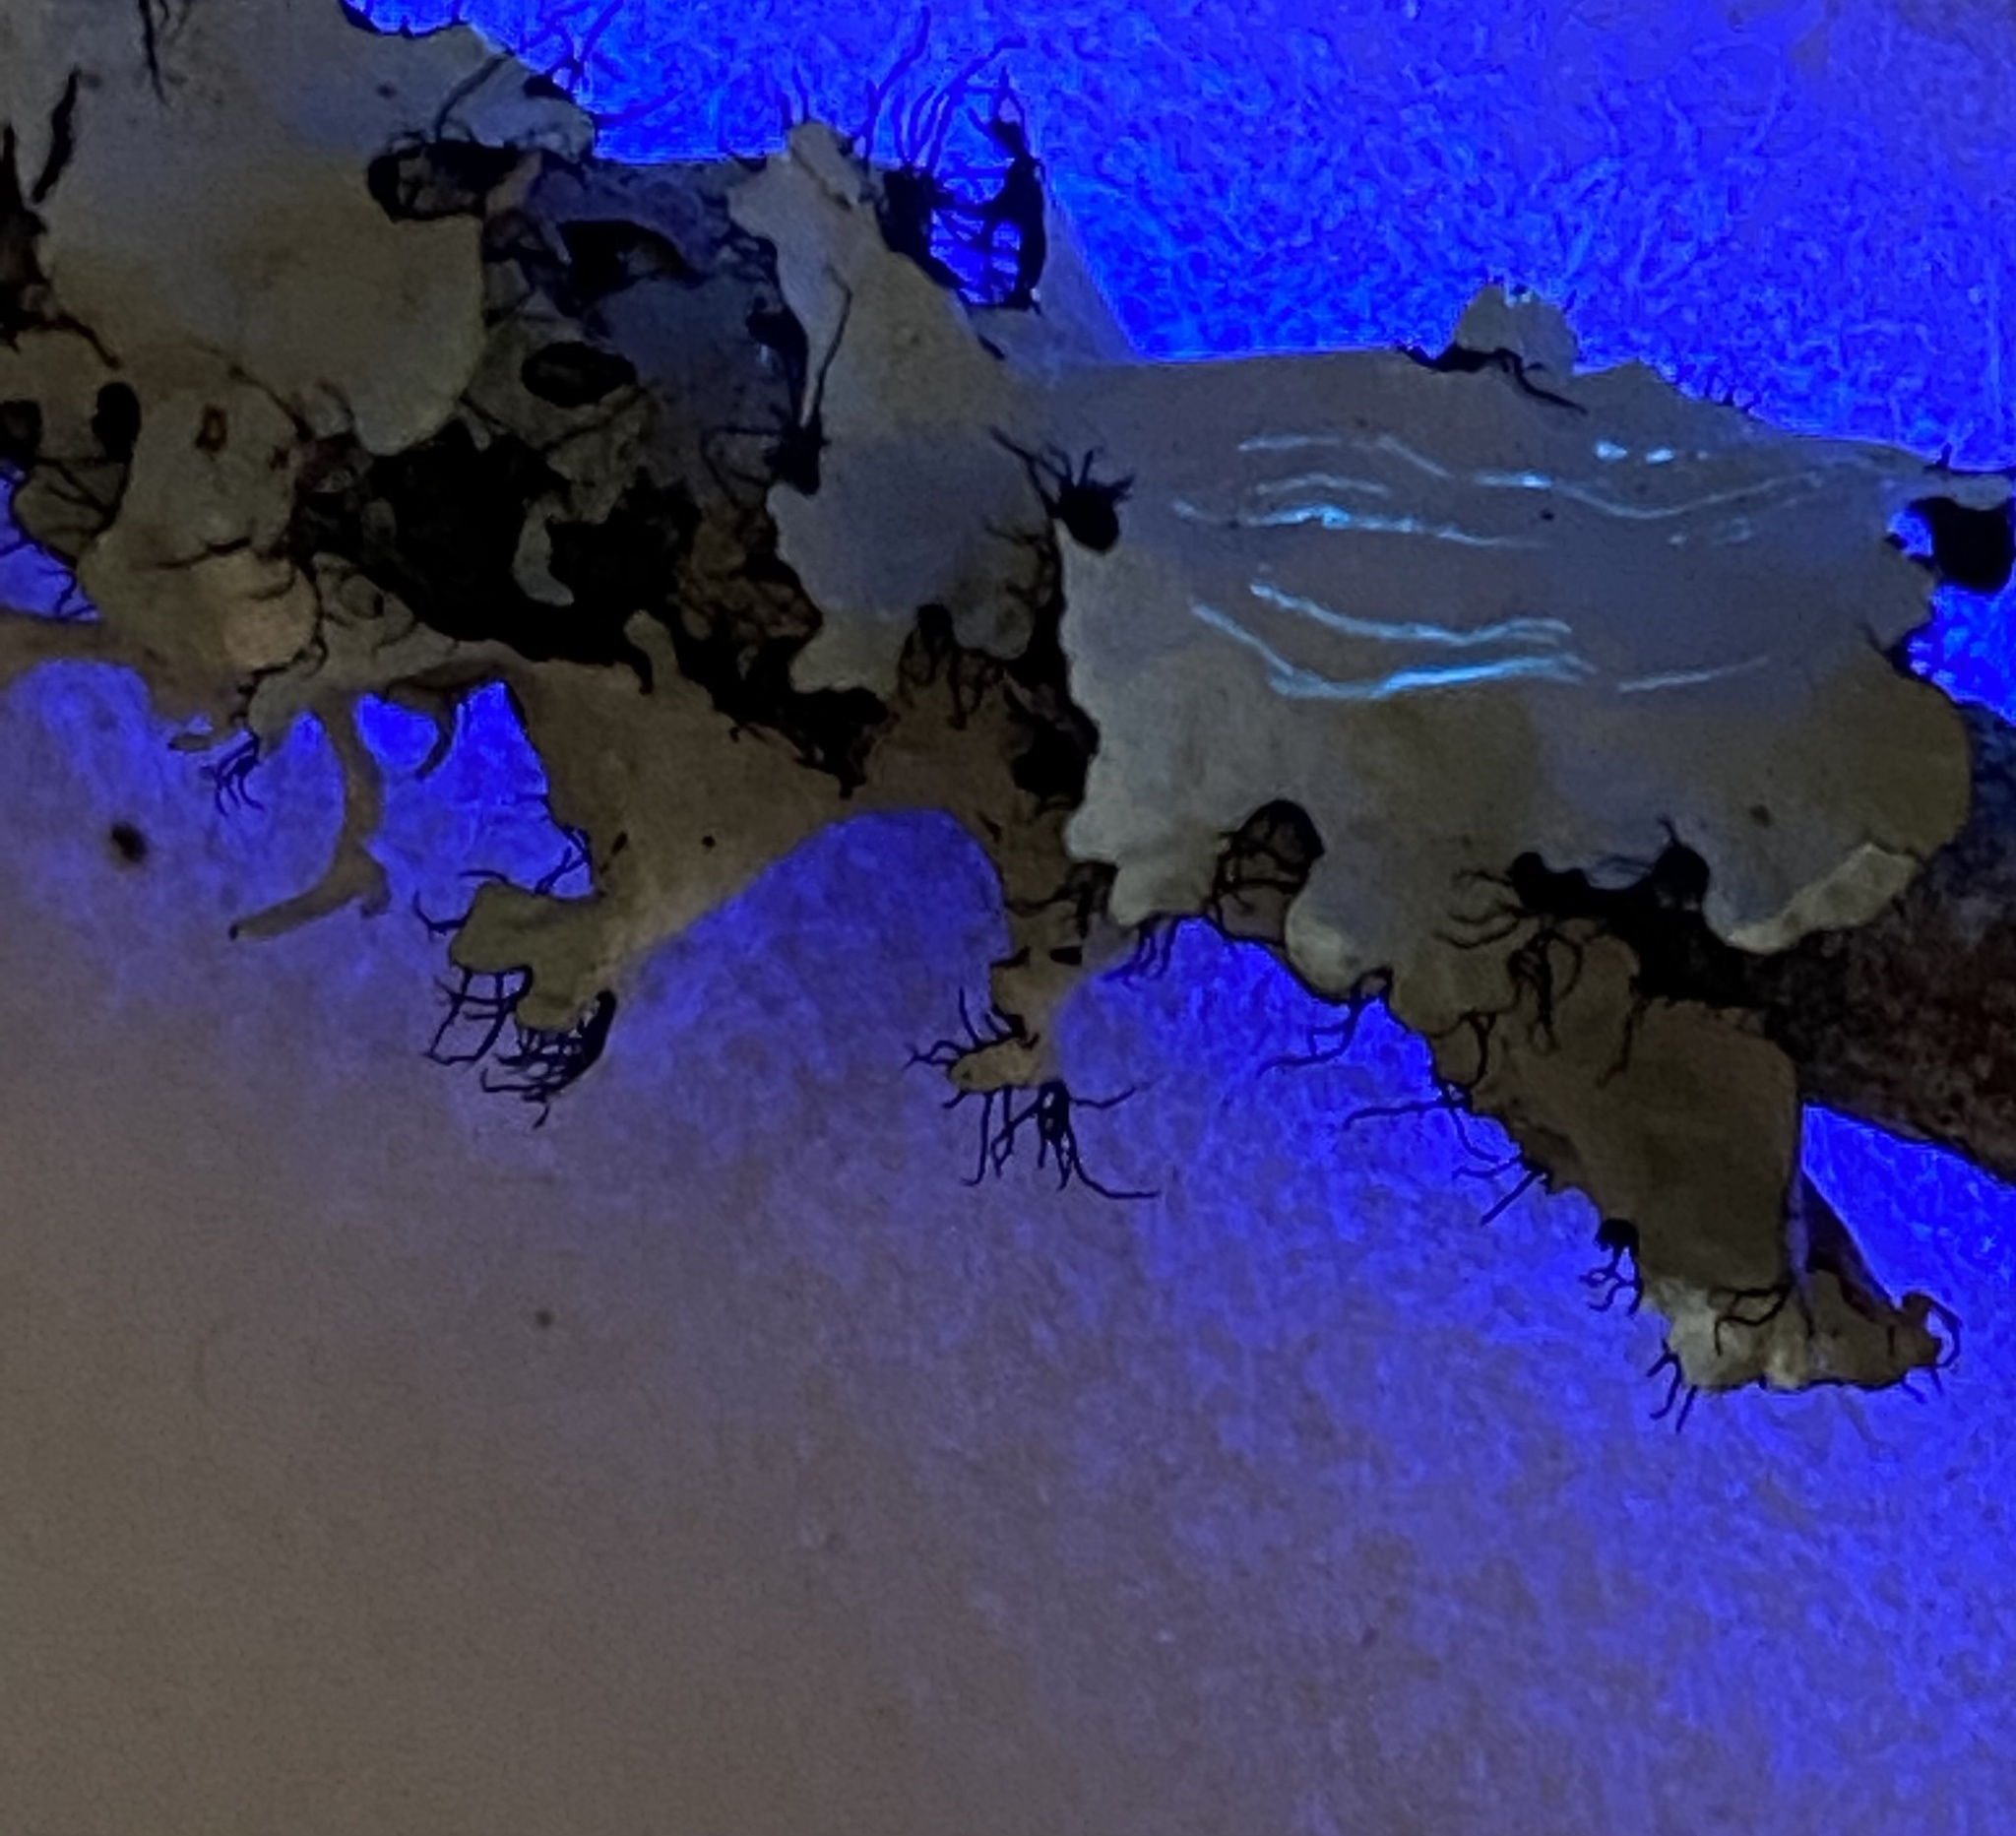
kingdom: Fungi
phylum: Ascomycota
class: Lecanoromycetes
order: Lecanorales
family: Parmeliaceae
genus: Parmotrema
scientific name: Parmotrema arnoldii
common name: Arnold's parmotrema lichen
